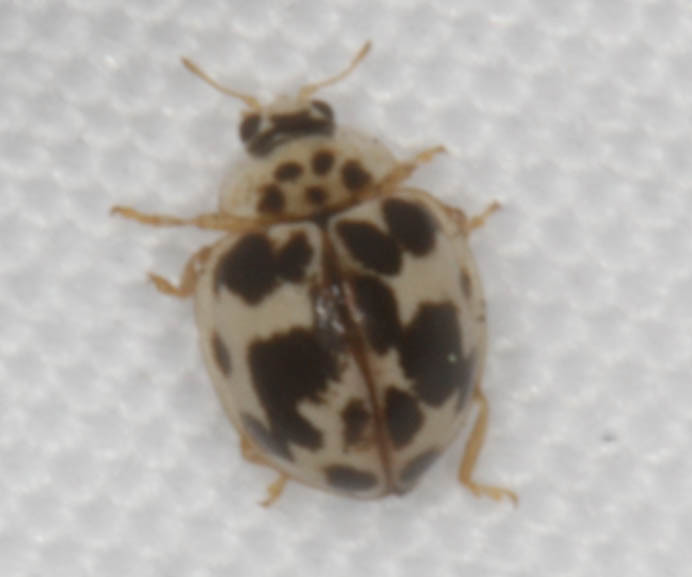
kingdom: Animalia
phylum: Arthropoda
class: Insecta
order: Coleoptera
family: Coccinellidae
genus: Psyllobora
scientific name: Psyllobora borealis
